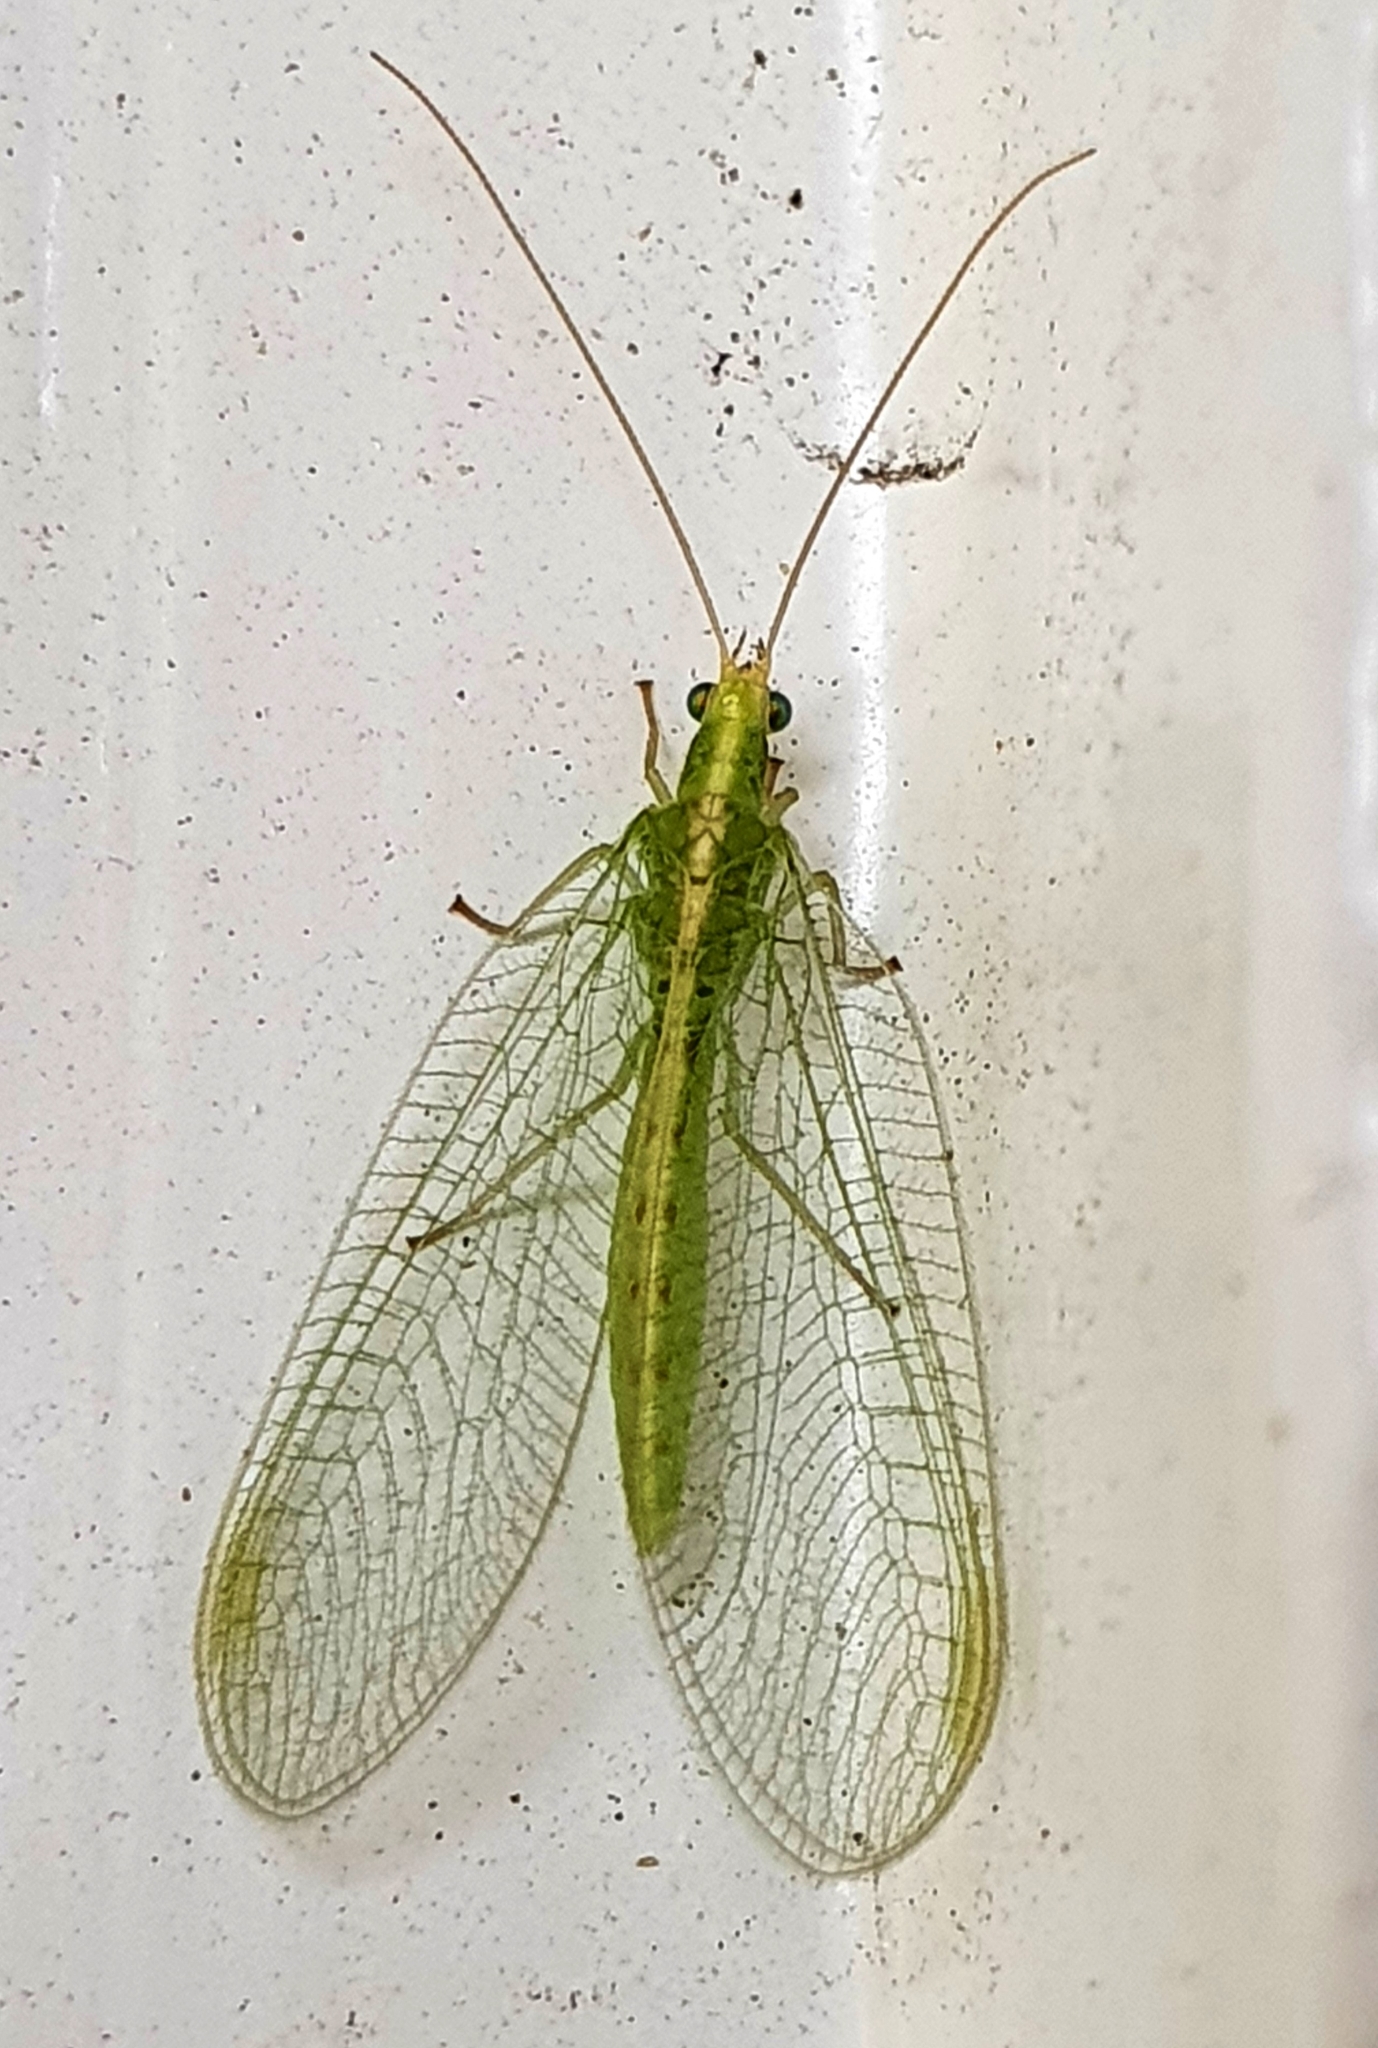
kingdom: Animalia
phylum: Arthropoda
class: Insecta
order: Neuroptera
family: Chrysopidae
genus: Chrysoperla
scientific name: Chrysoperla
